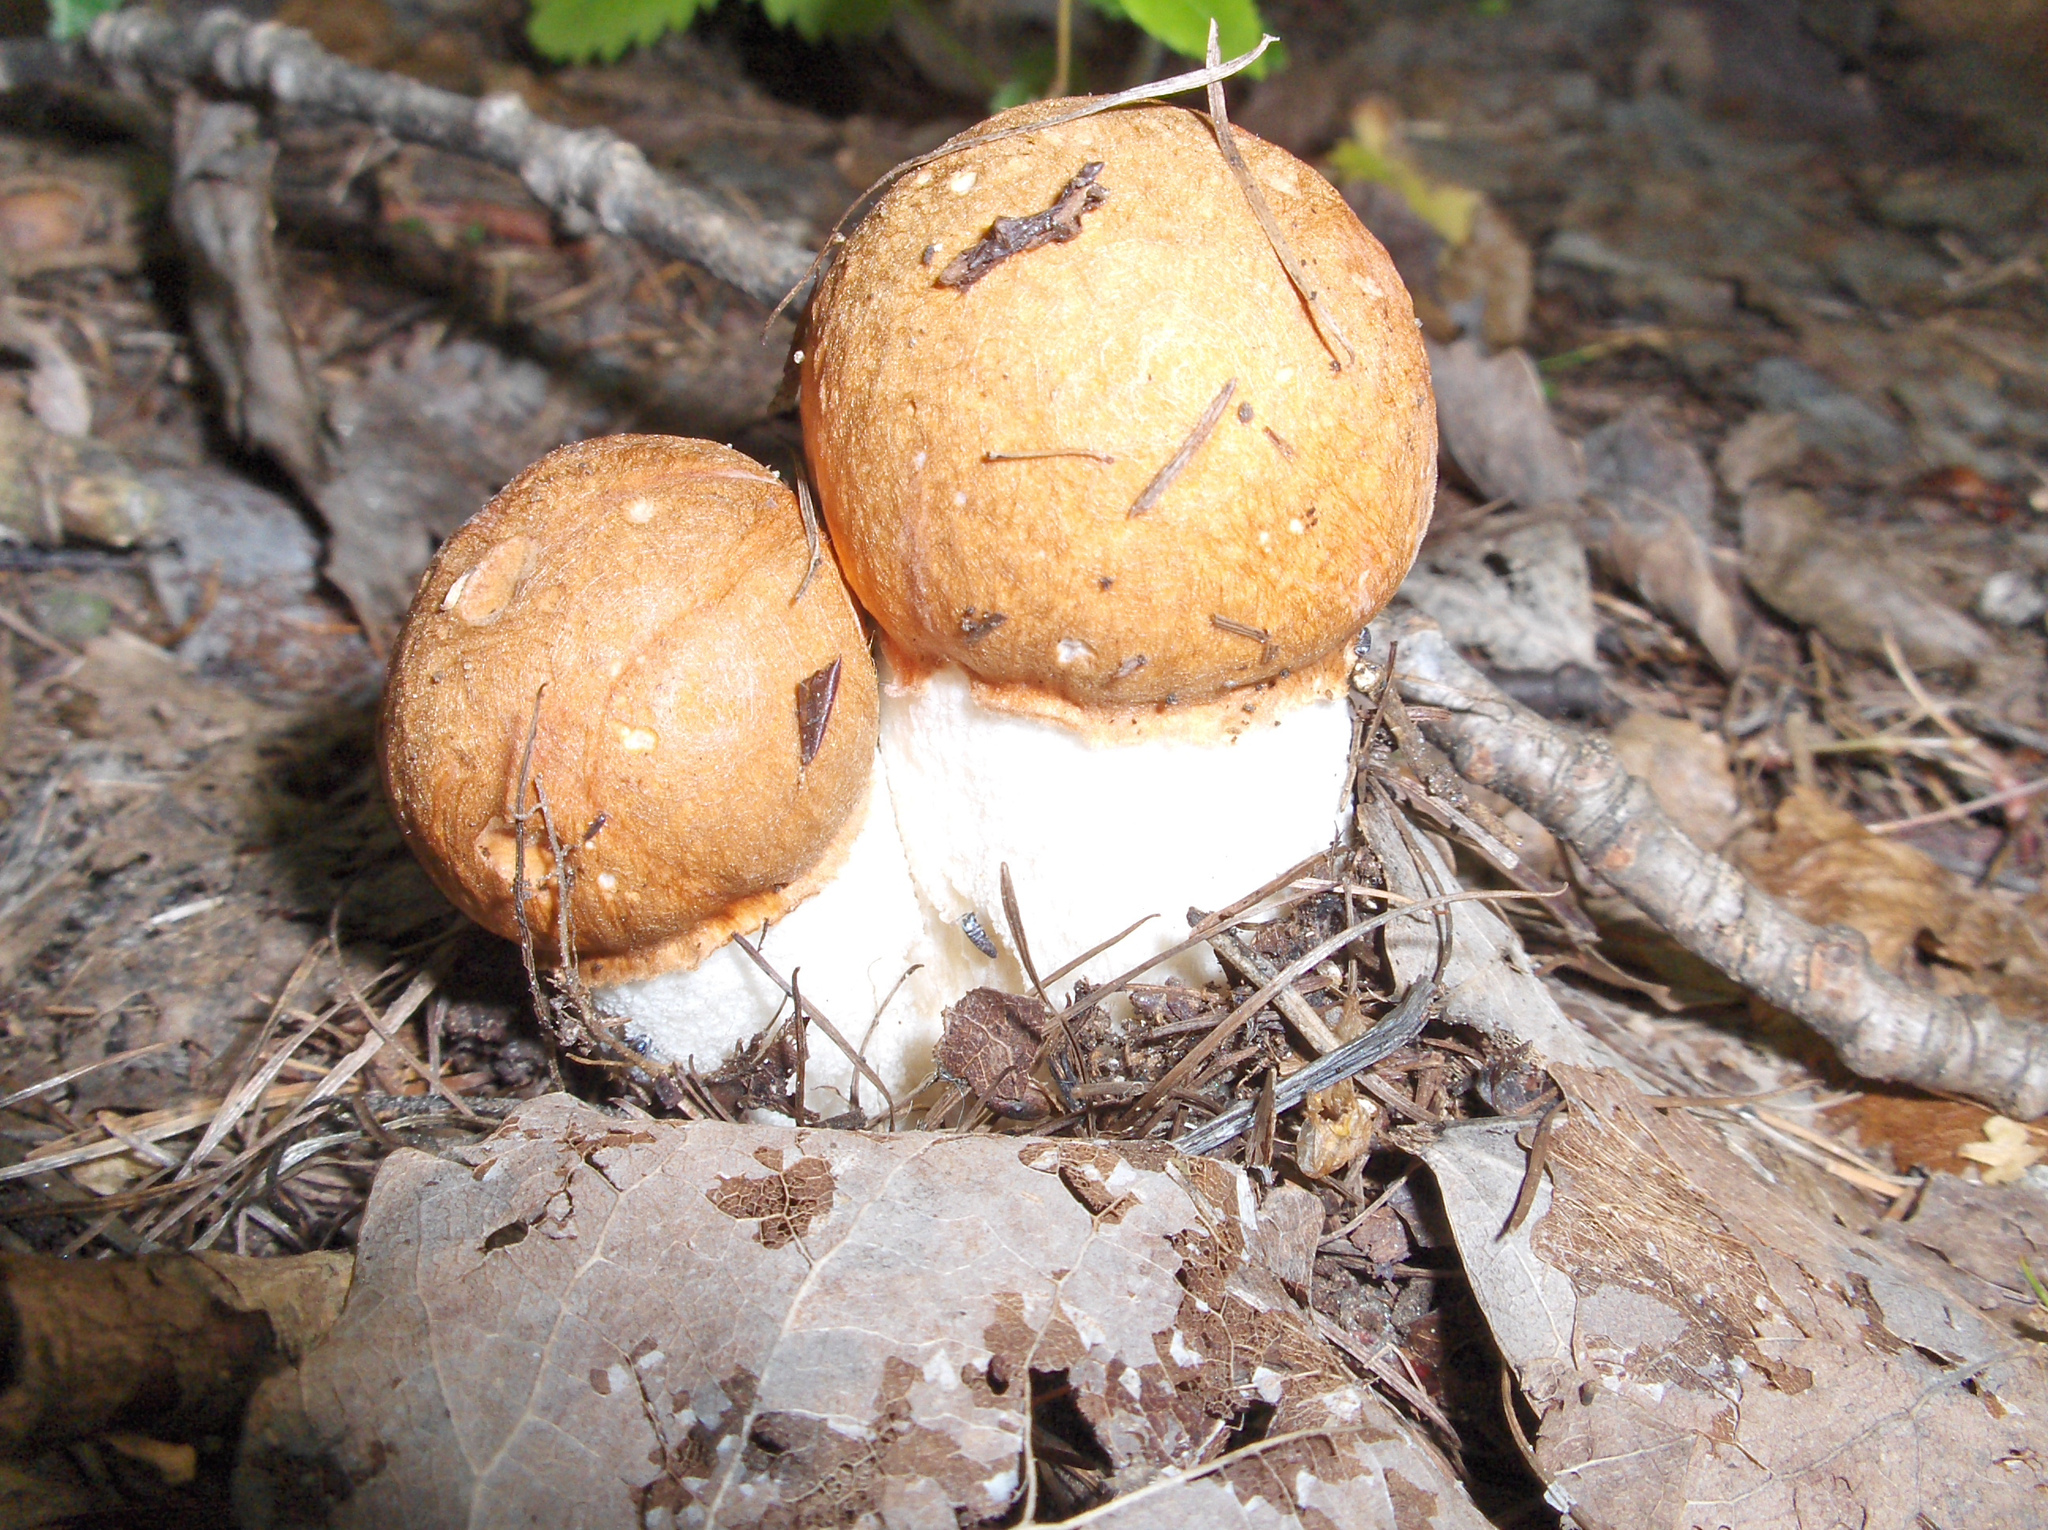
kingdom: Fungi
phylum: Basidiomycota
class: Agaricomycetes
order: Boletales
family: Boletaceae
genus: Leccinum
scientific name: Leccinum albostipitatum
